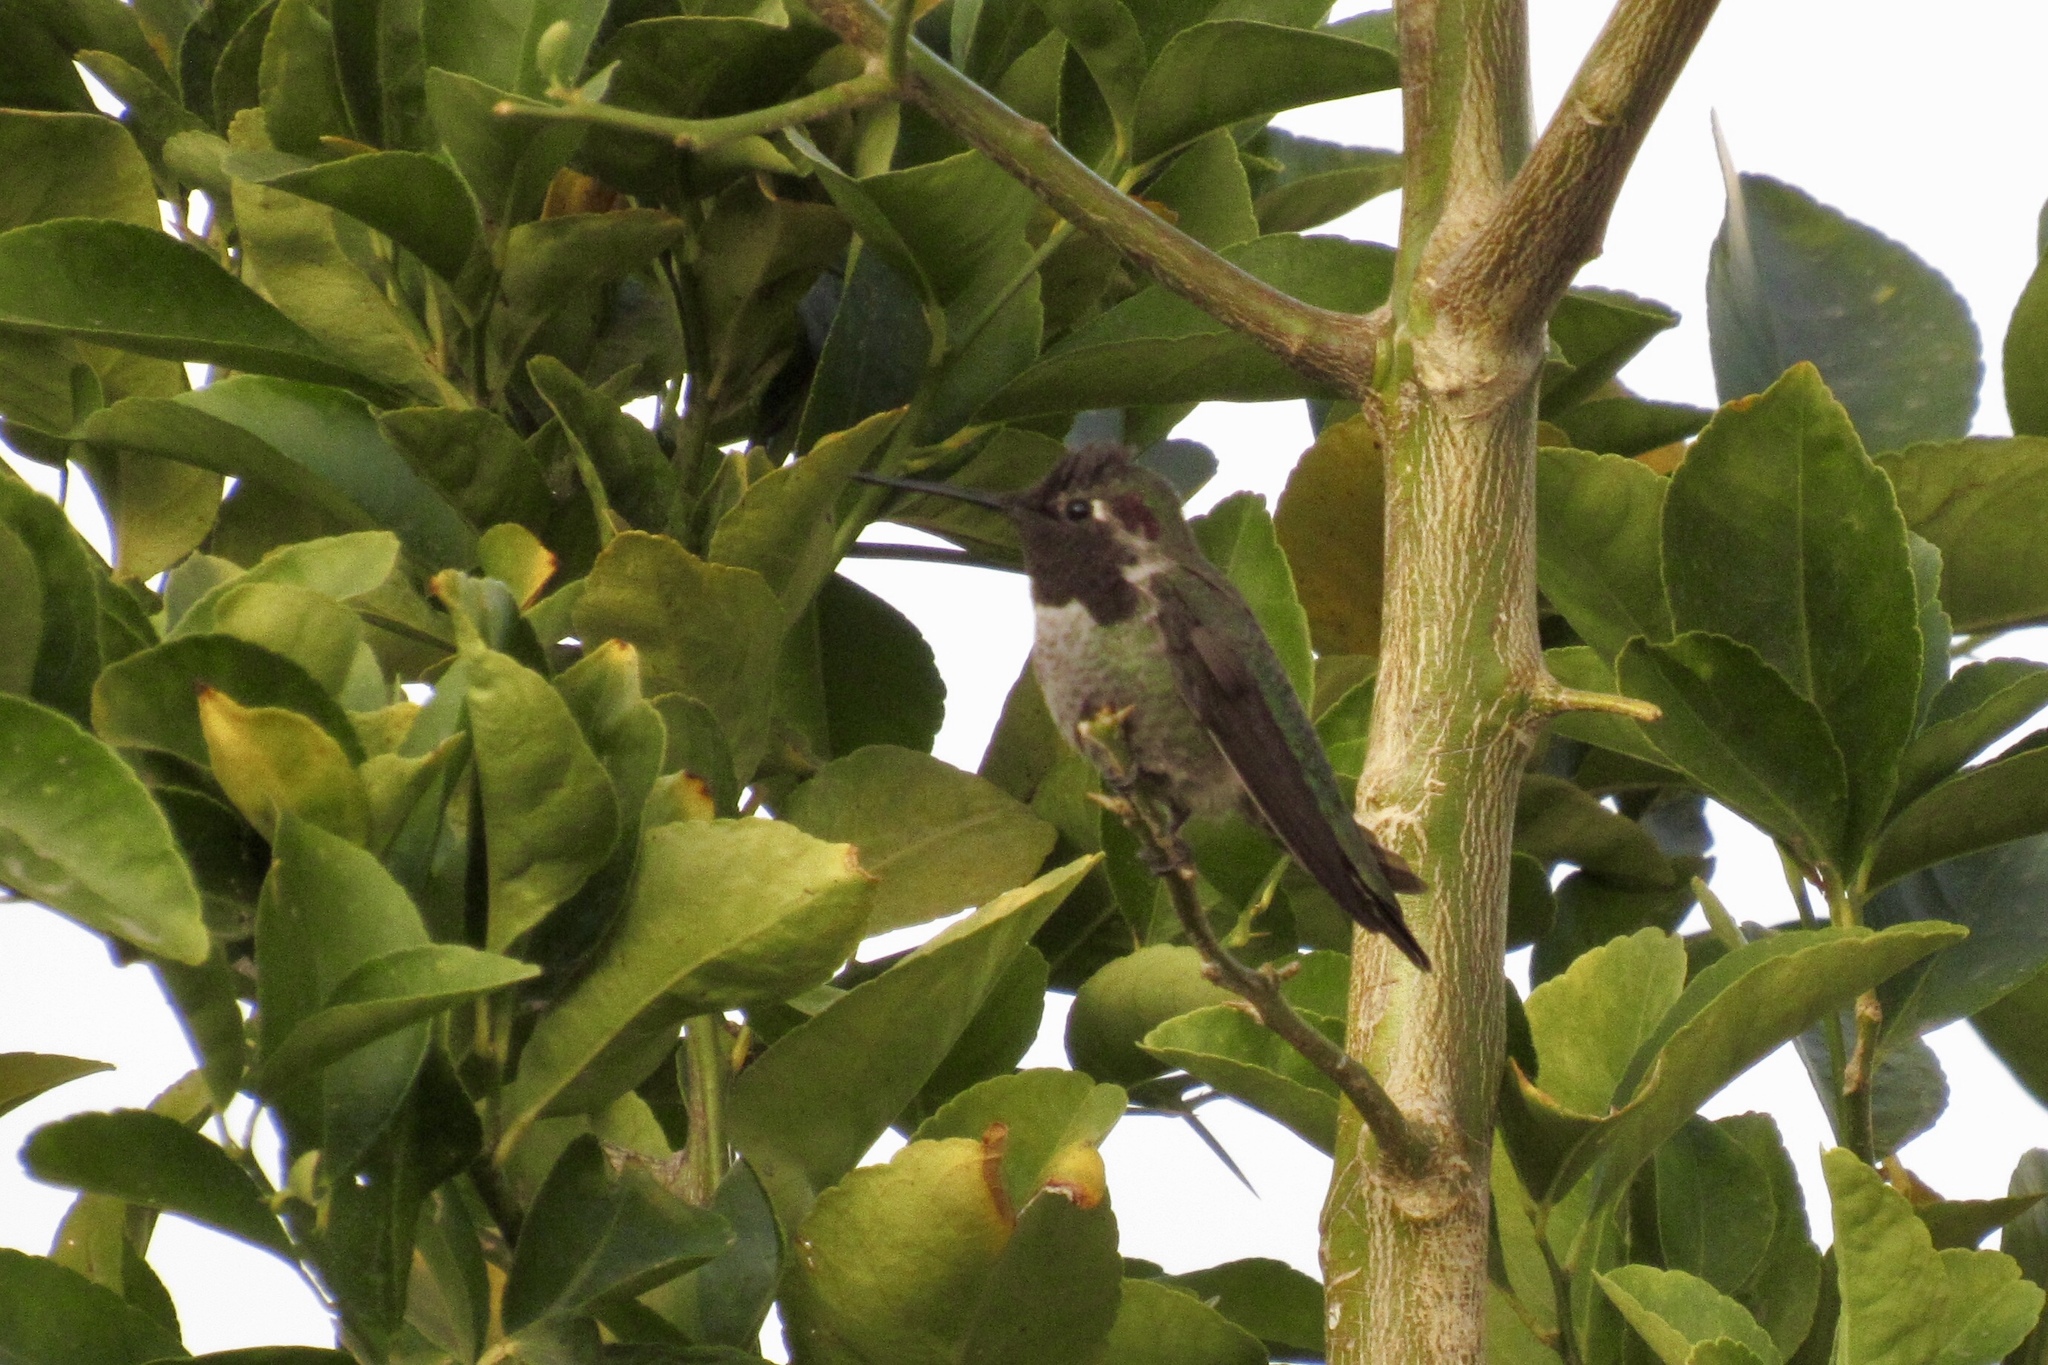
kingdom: Animalia
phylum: Chordata
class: Aves
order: Apodiformes
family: Trochilidae
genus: Calypte
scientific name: Calypte anna
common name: Anna's hummingbird
